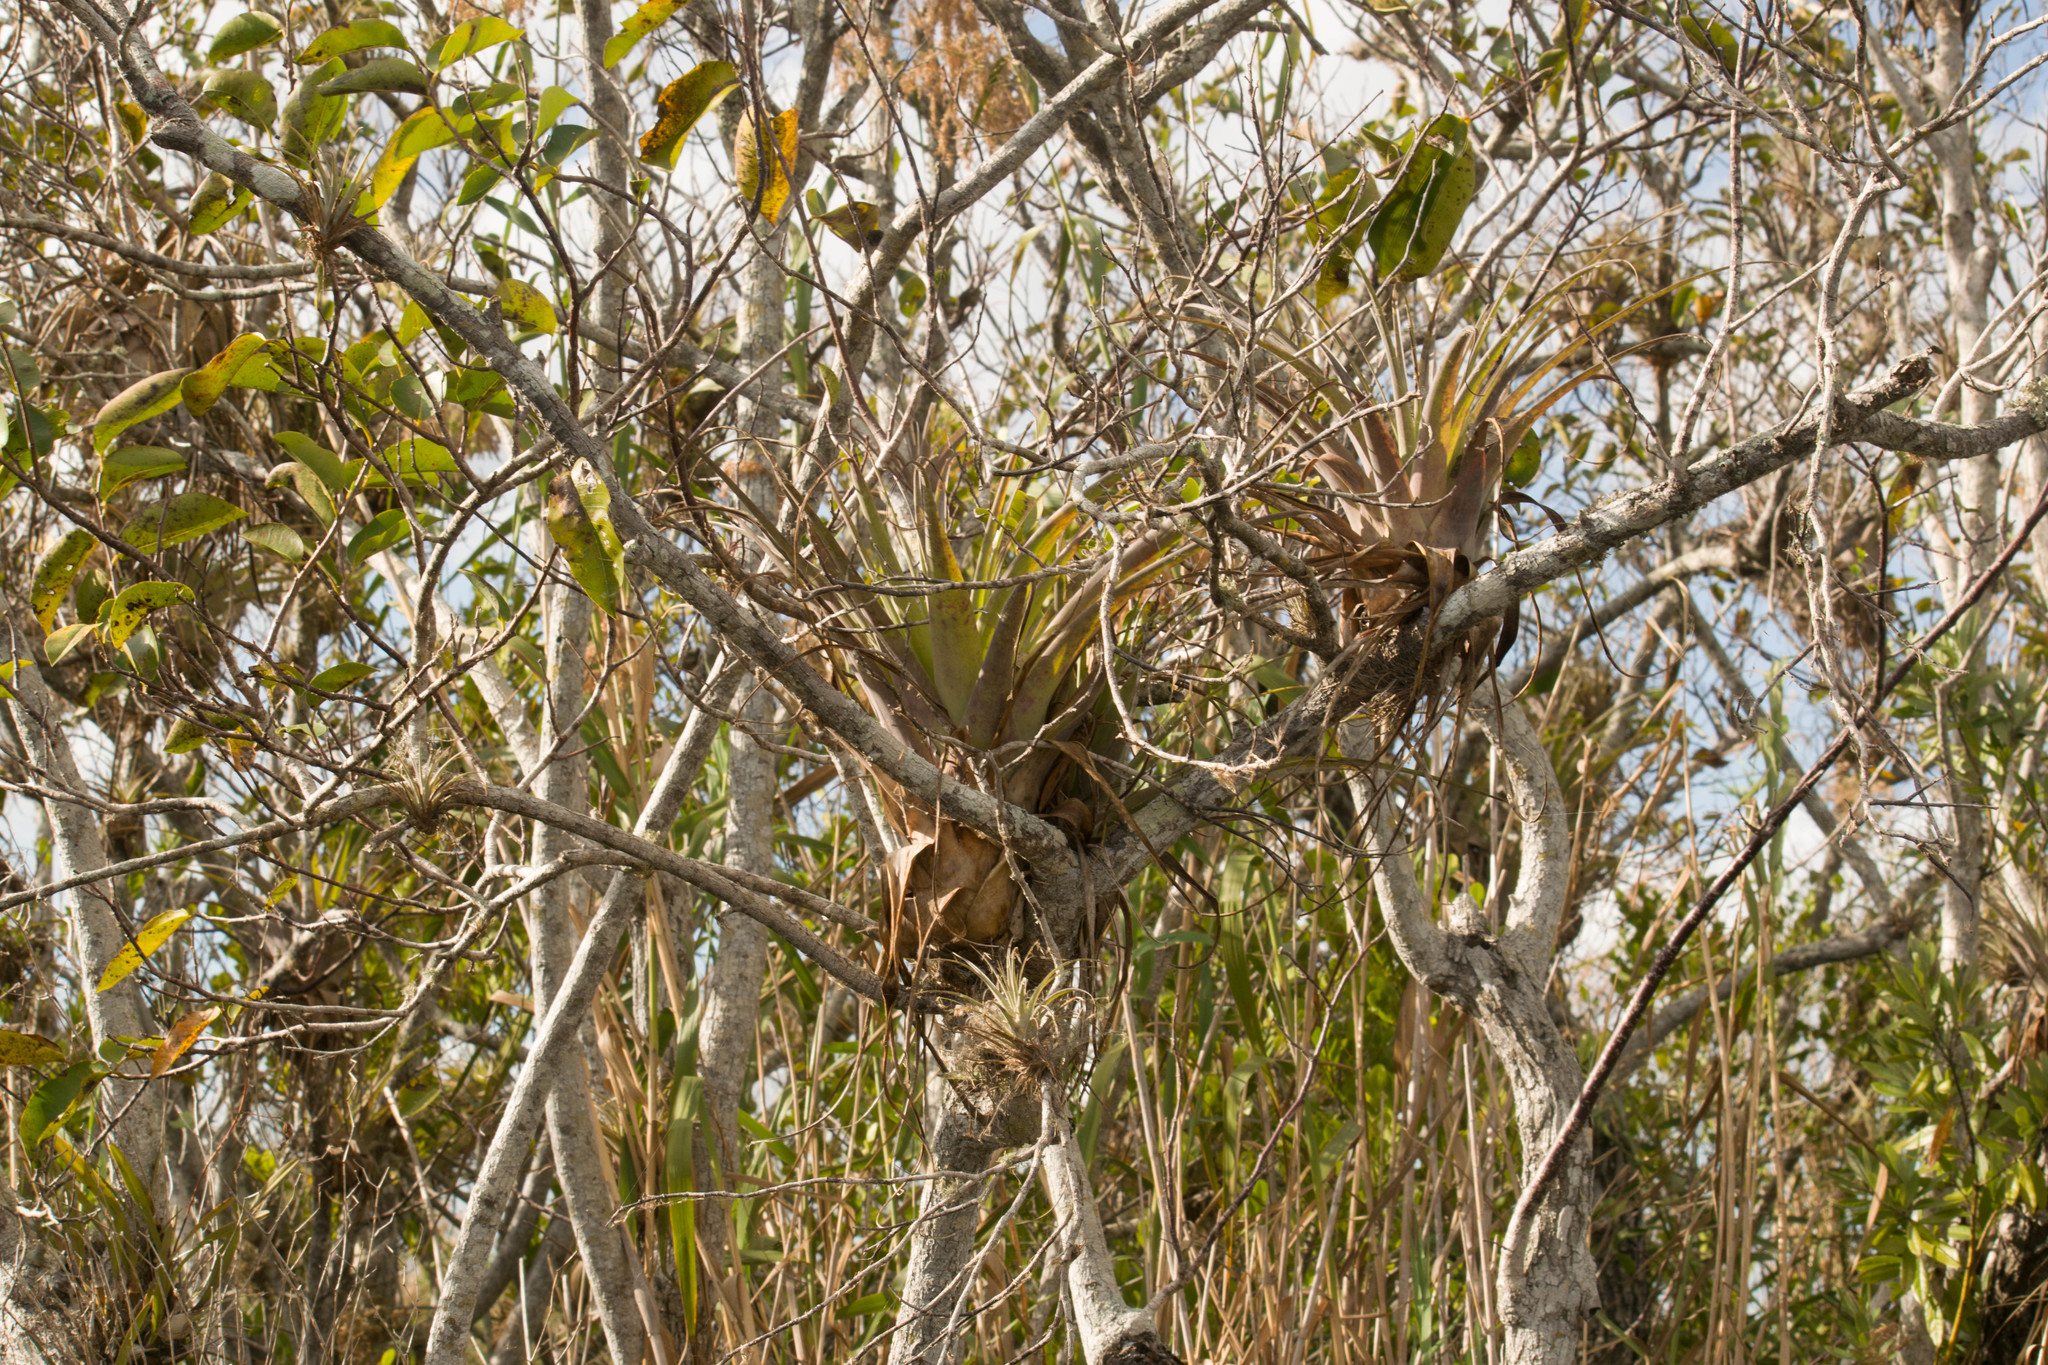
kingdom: Plantae
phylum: Tracheophyta
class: Liliopsida
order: Poales
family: Bromeliaceae
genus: Tillandsia
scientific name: Tillandsia utriculata
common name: Wild pine
